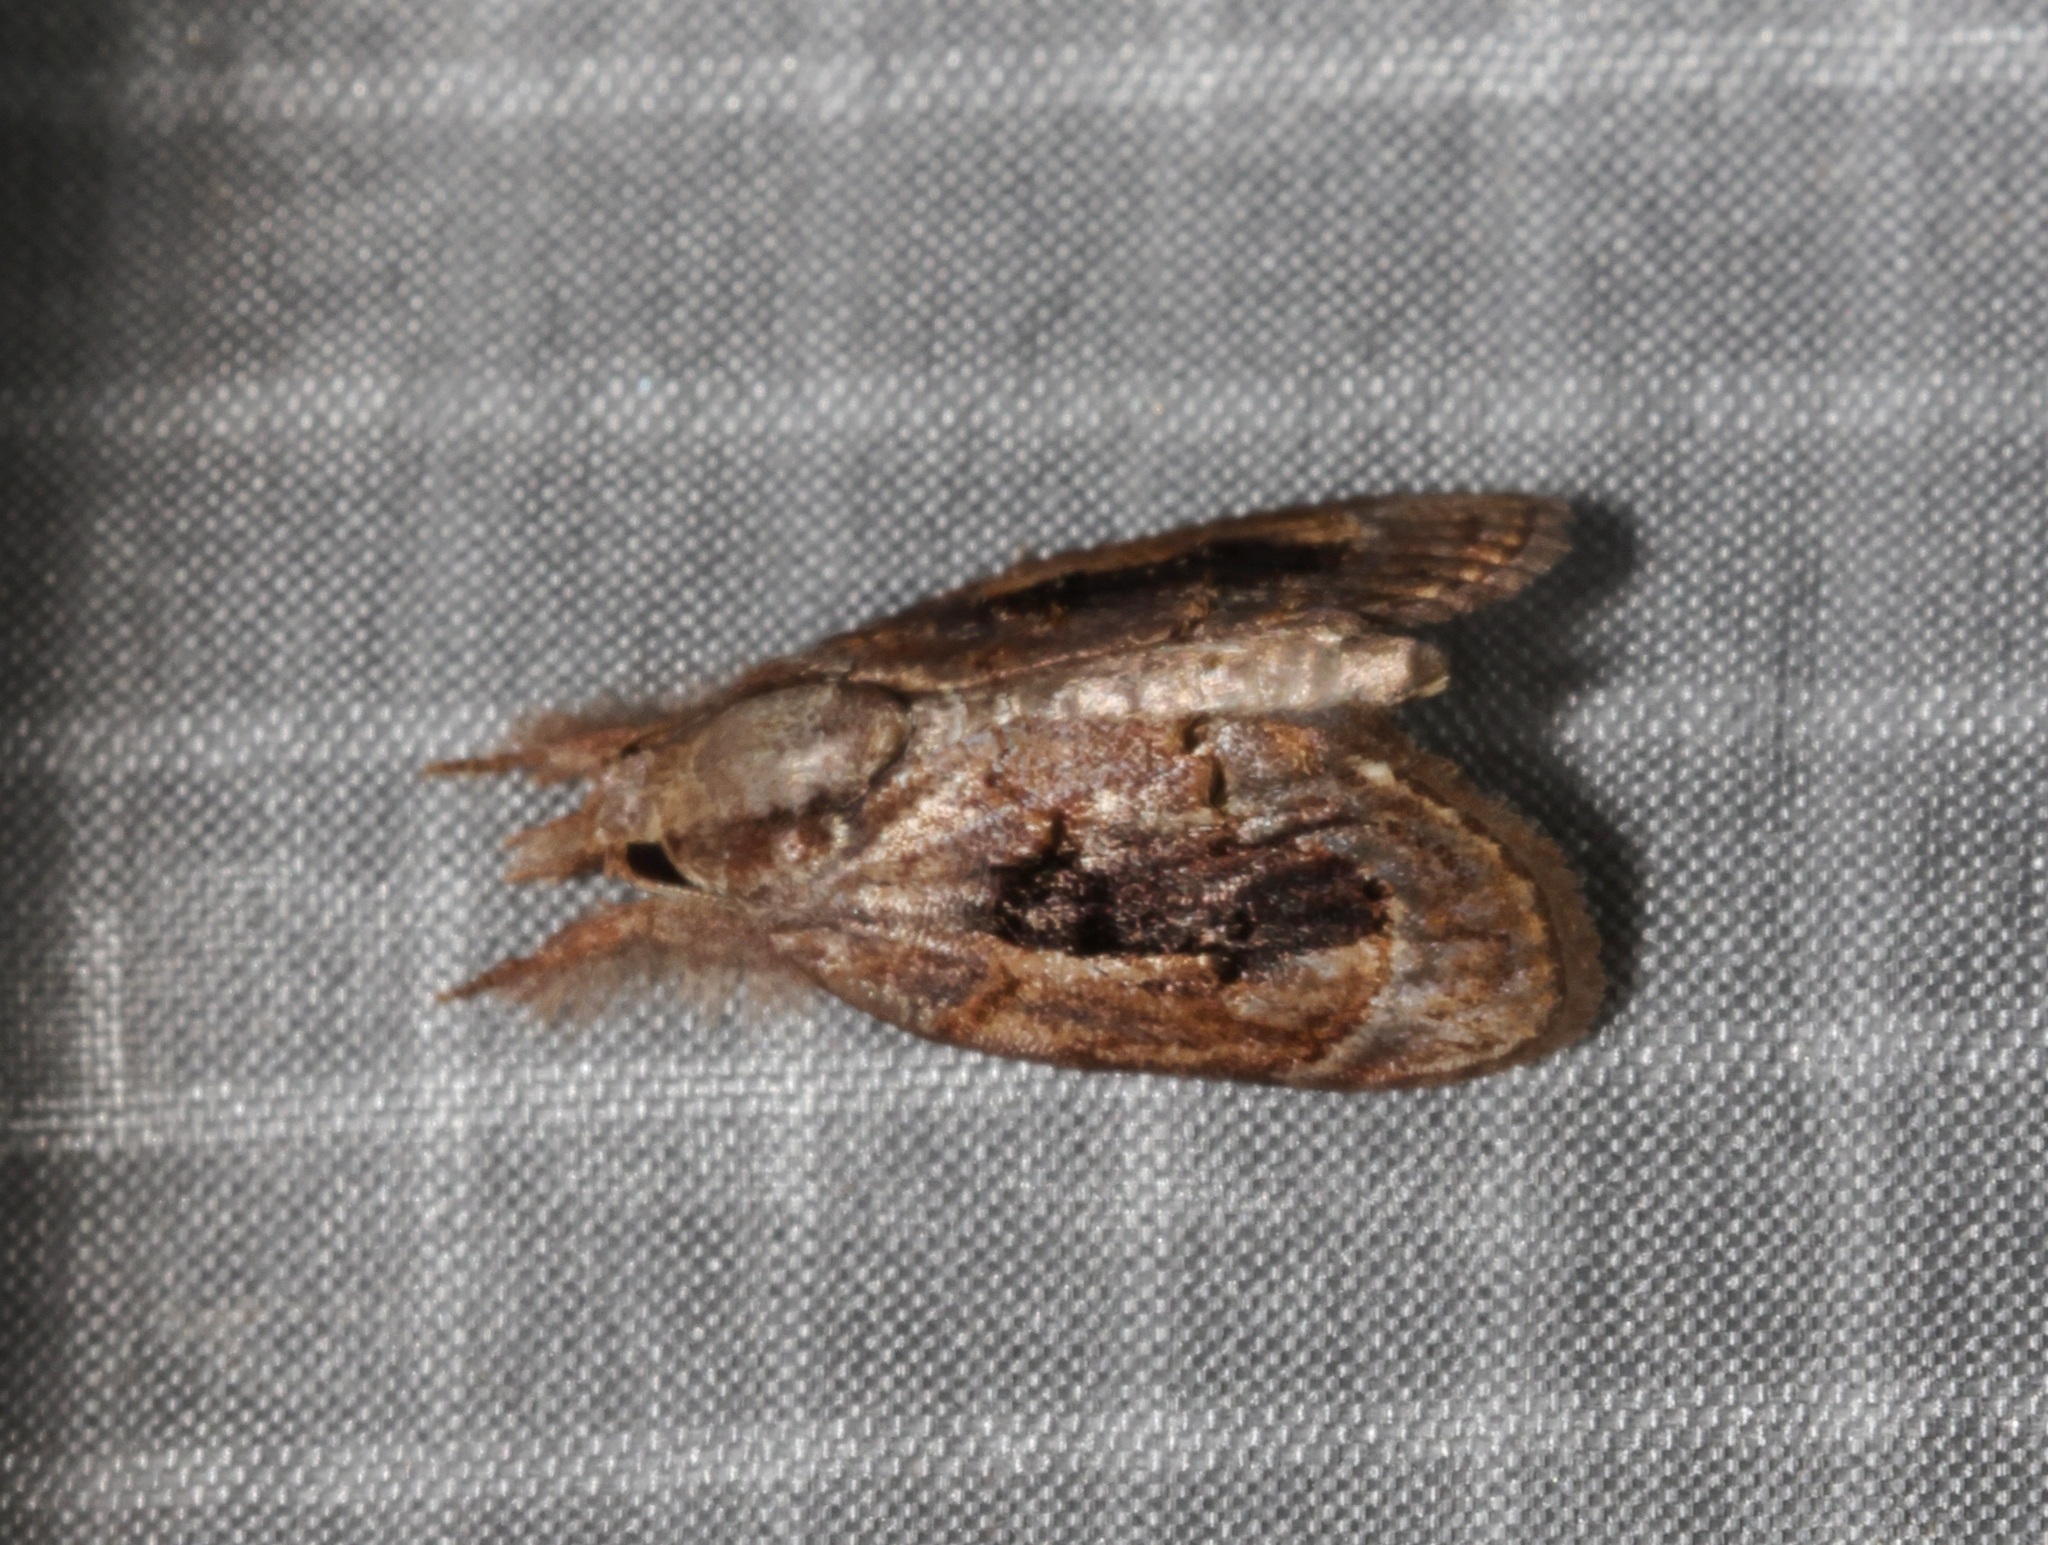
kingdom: Animalia
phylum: Arthropoda
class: Insecta
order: Lepidoptera
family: Nolidae
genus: Selepa
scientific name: Selepa discigera
